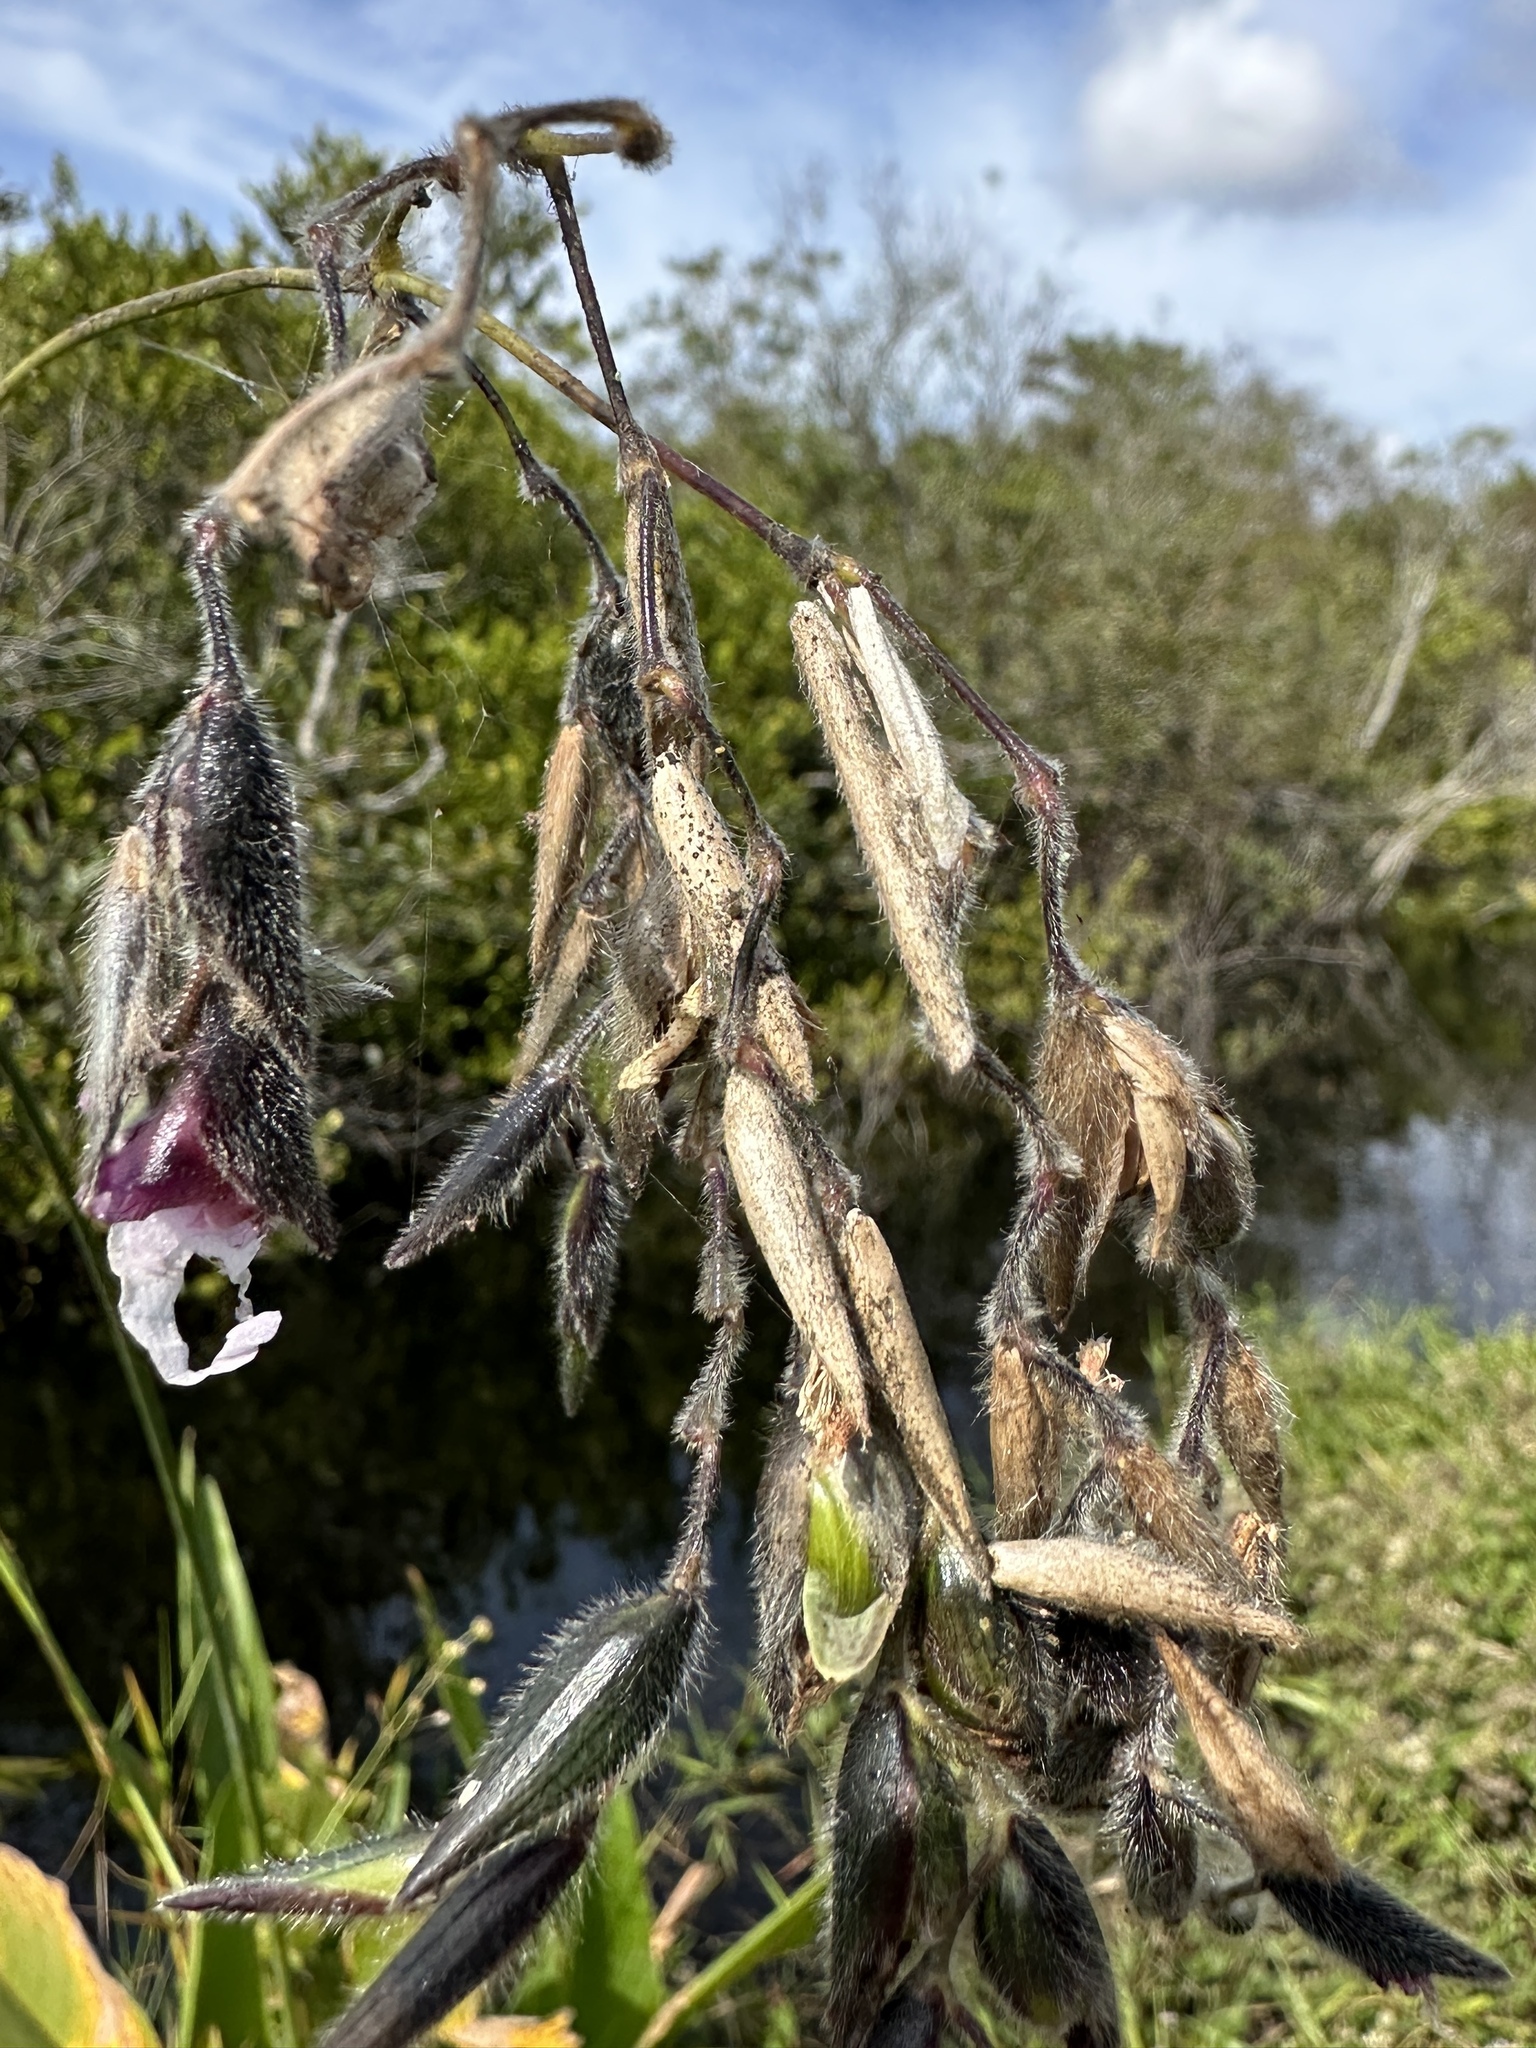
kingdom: Plantae
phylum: Tracheophyta
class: Liliopsida
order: Zingiberales
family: Marantaceae
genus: Thalia
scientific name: Thalia geniculata
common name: Arrowroot
